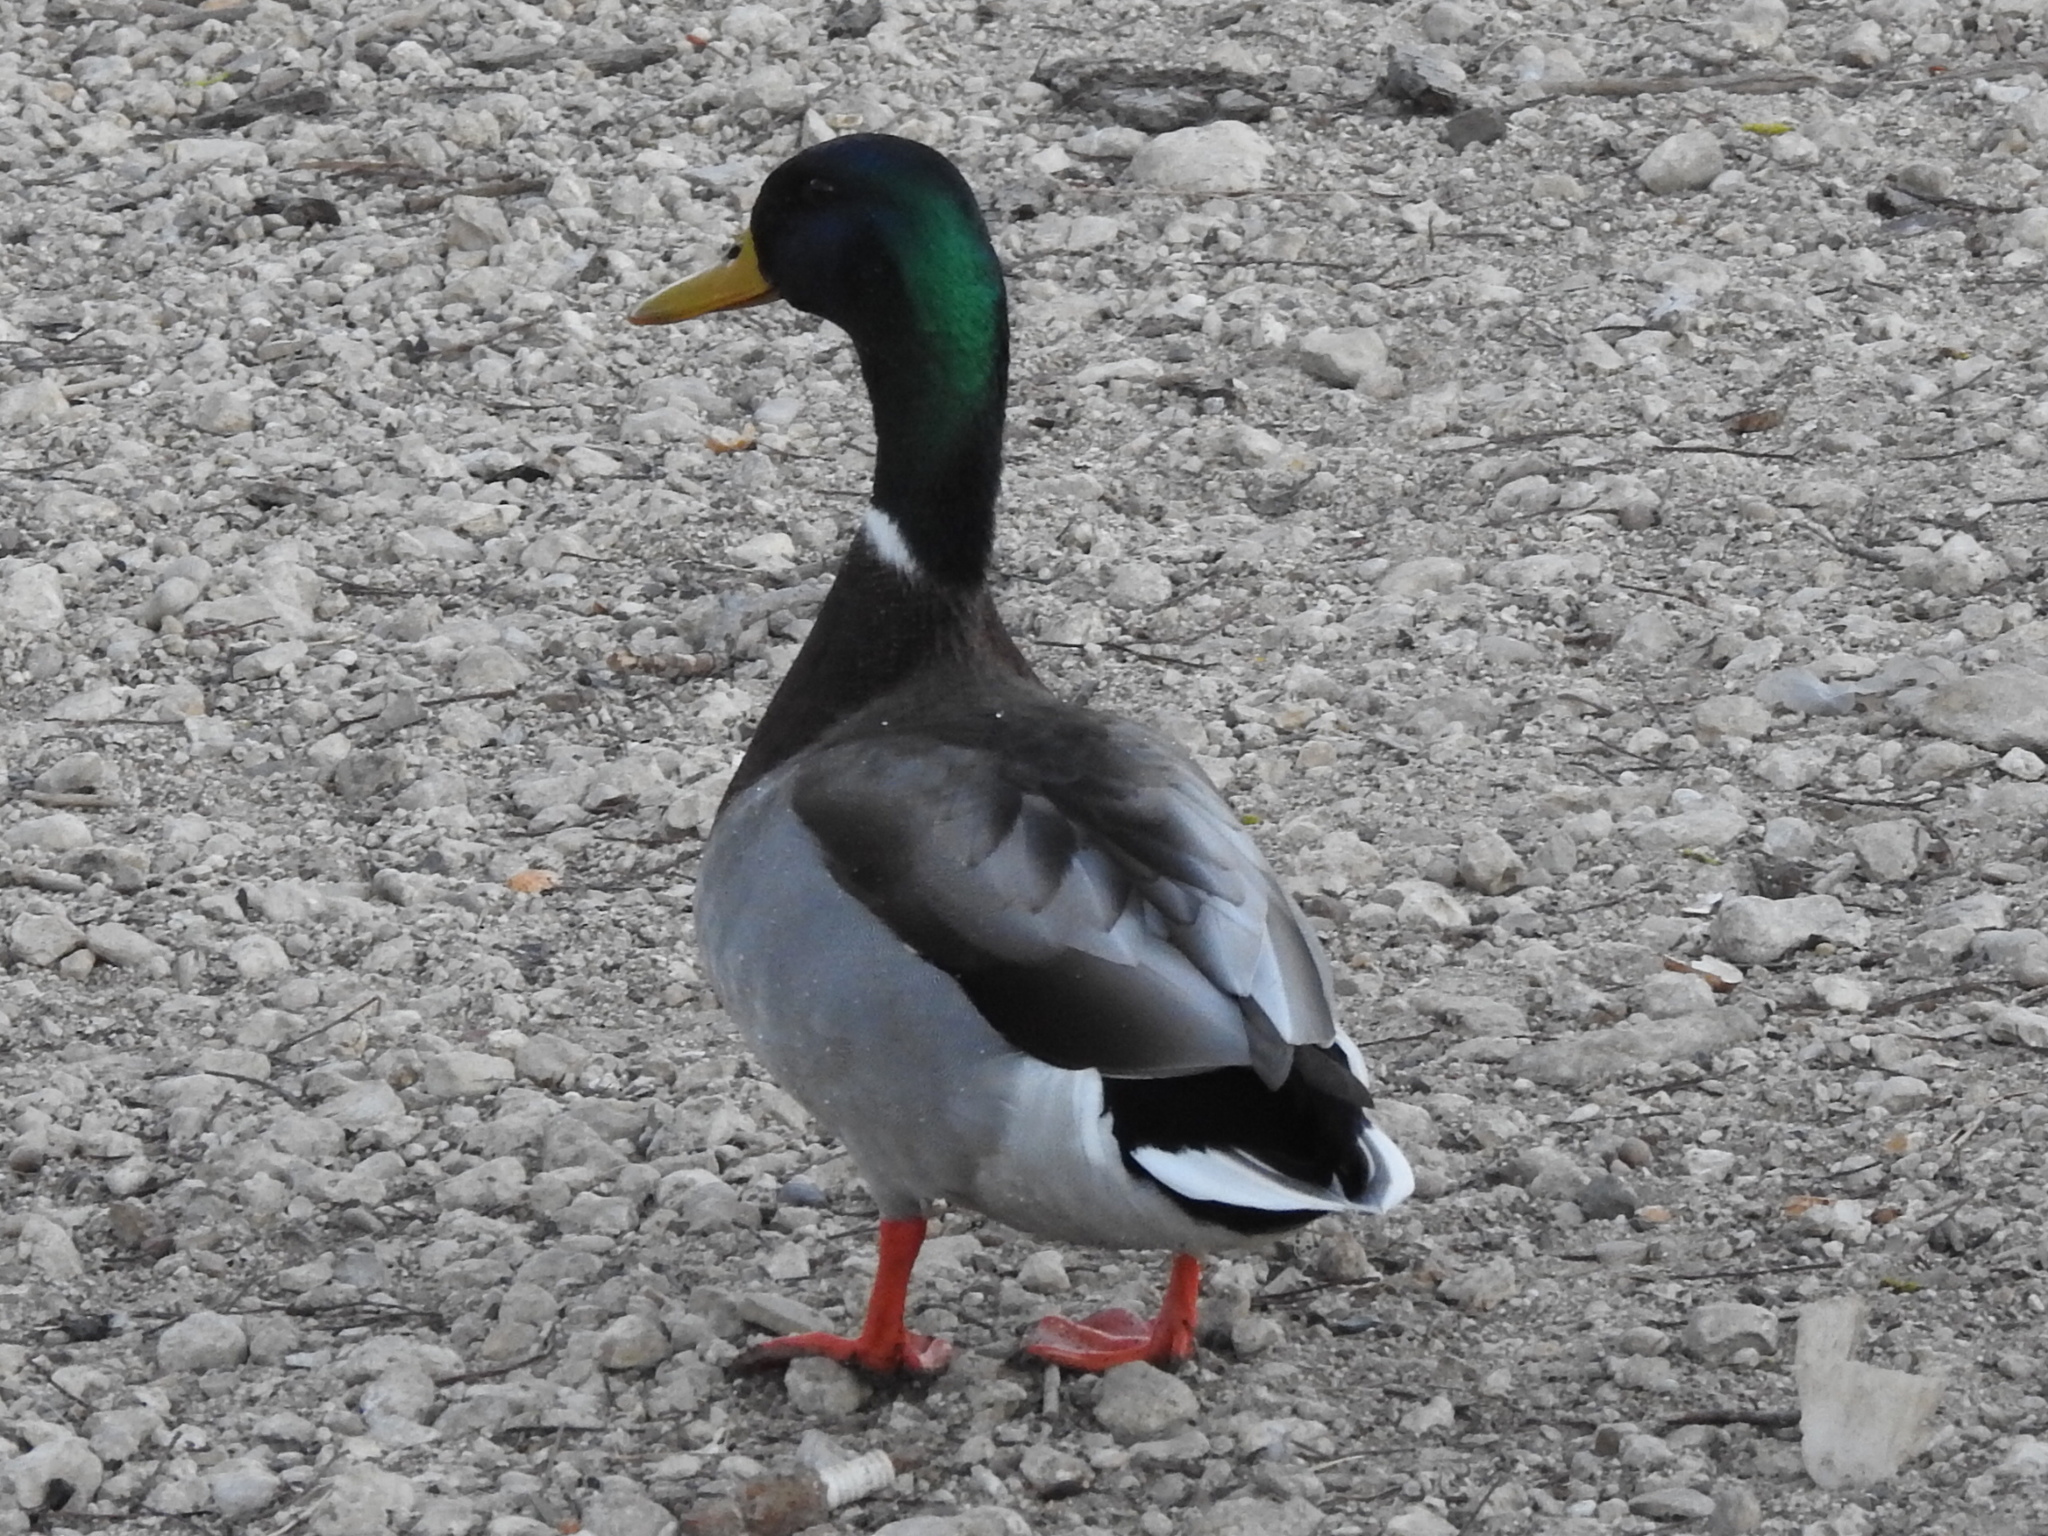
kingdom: Animalia
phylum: Chordata
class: Aves
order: Anseriformes
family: Anatidae
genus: Anas
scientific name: Anas platyrhynchos
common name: Mallard
